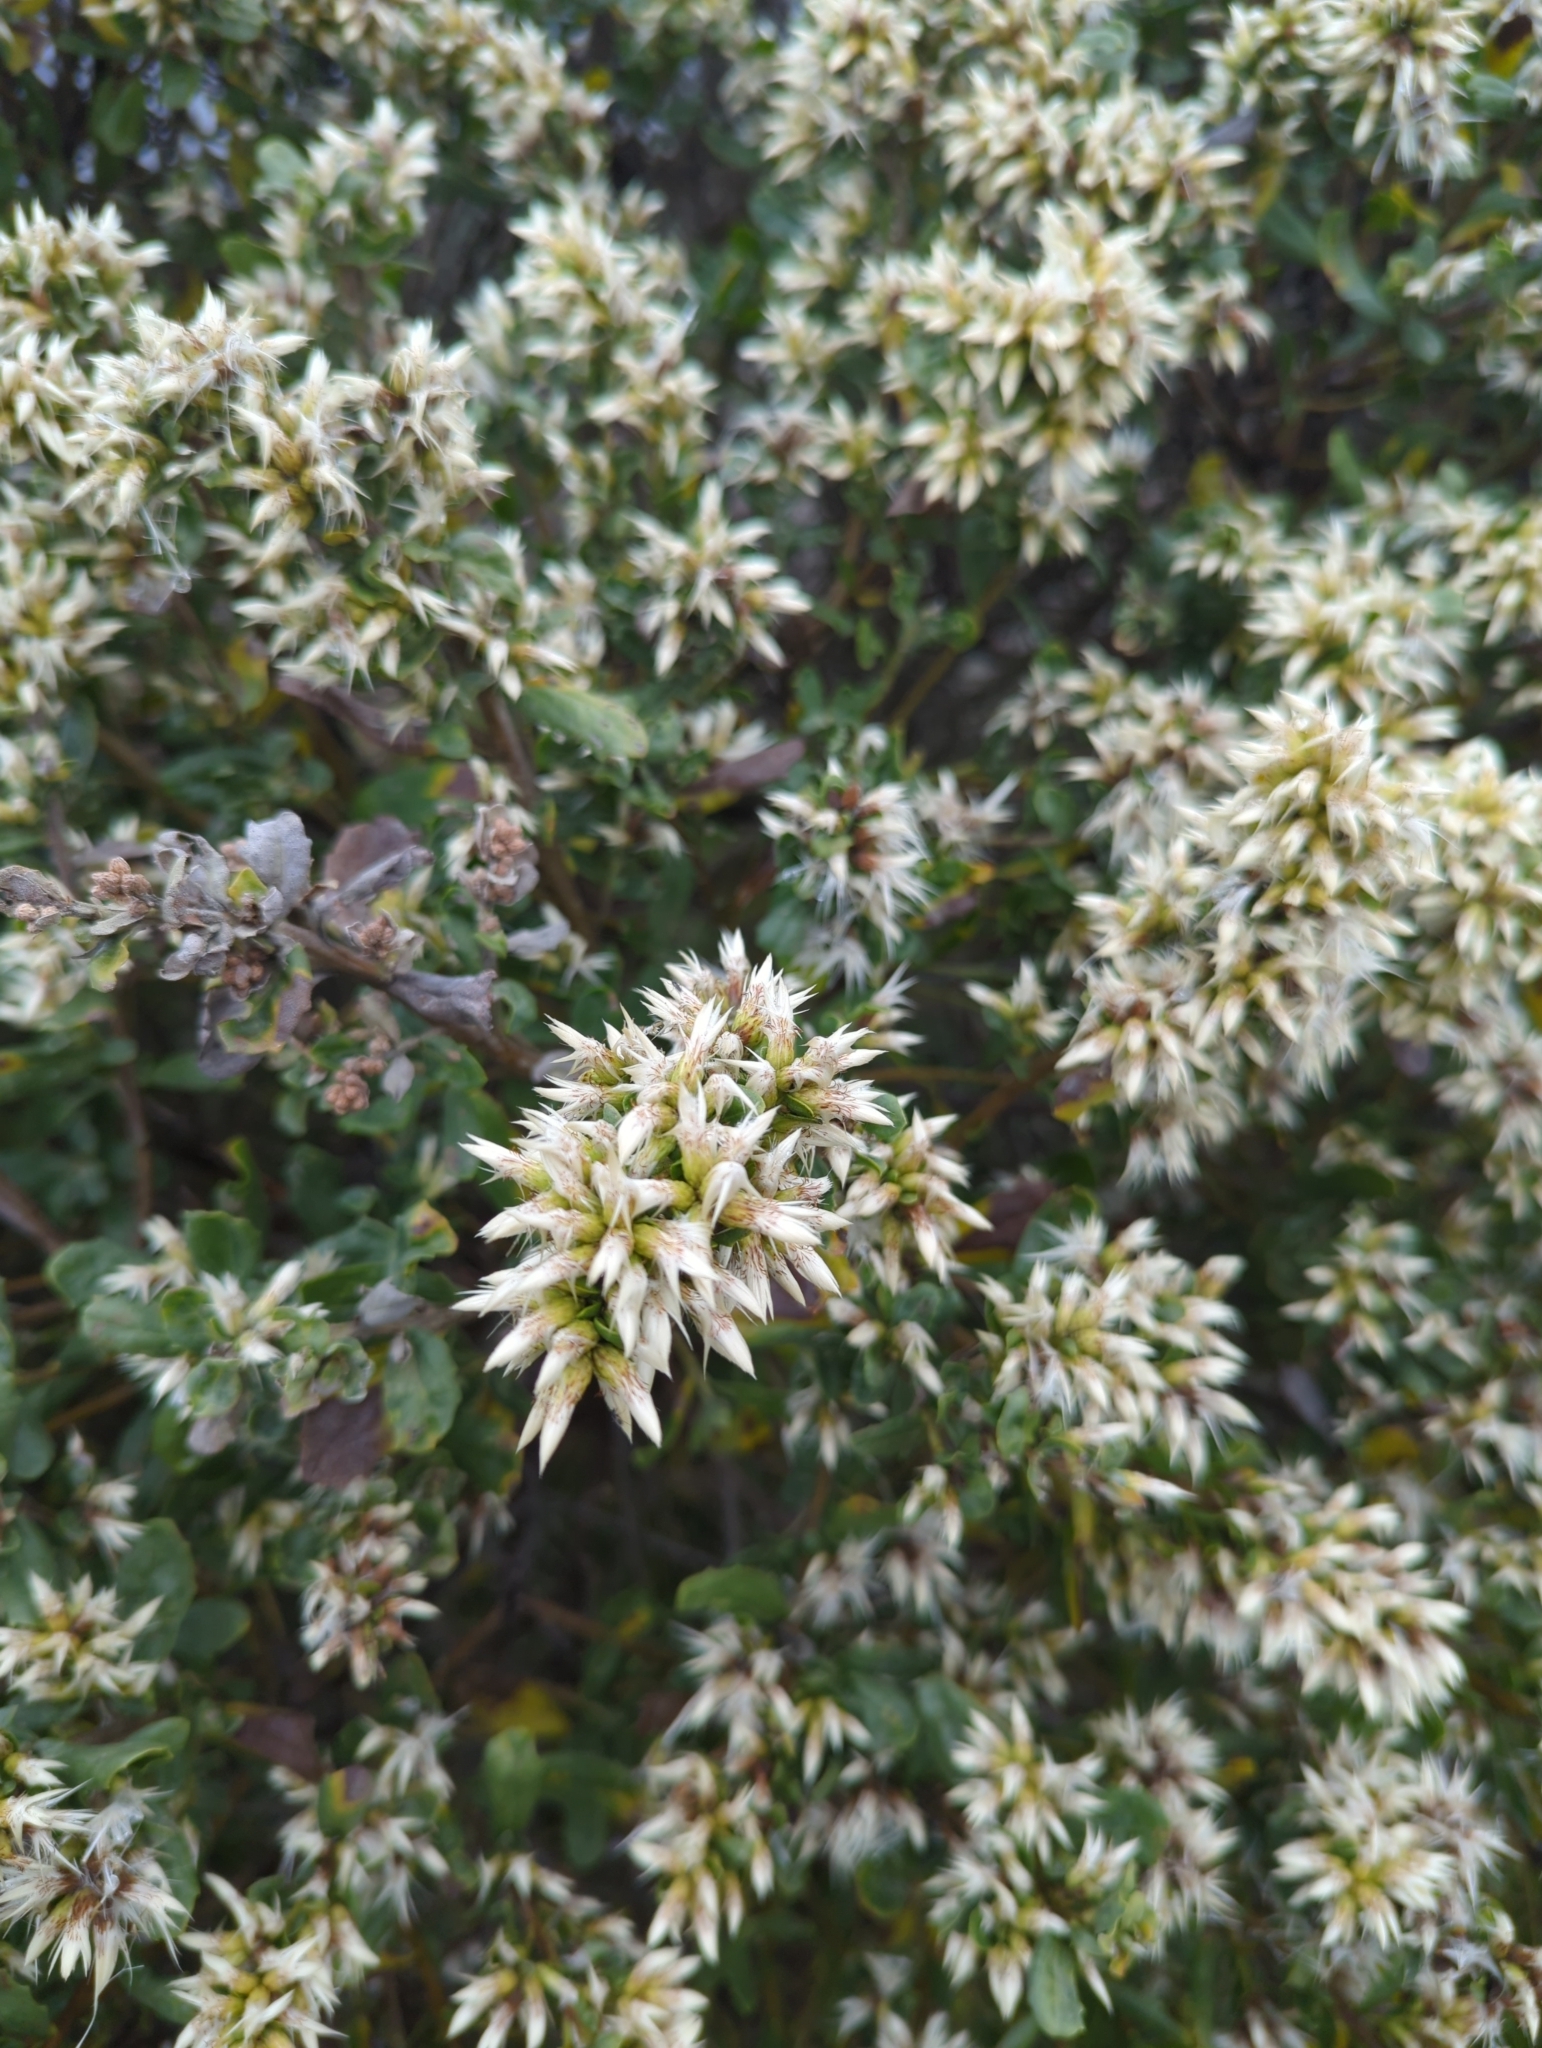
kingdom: Plantae
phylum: Tracheophyta
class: Magnoliopsida
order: Asterales
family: Asteraceae
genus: Baccharis
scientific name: Baccharis pilularis
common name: Coyotebrush
